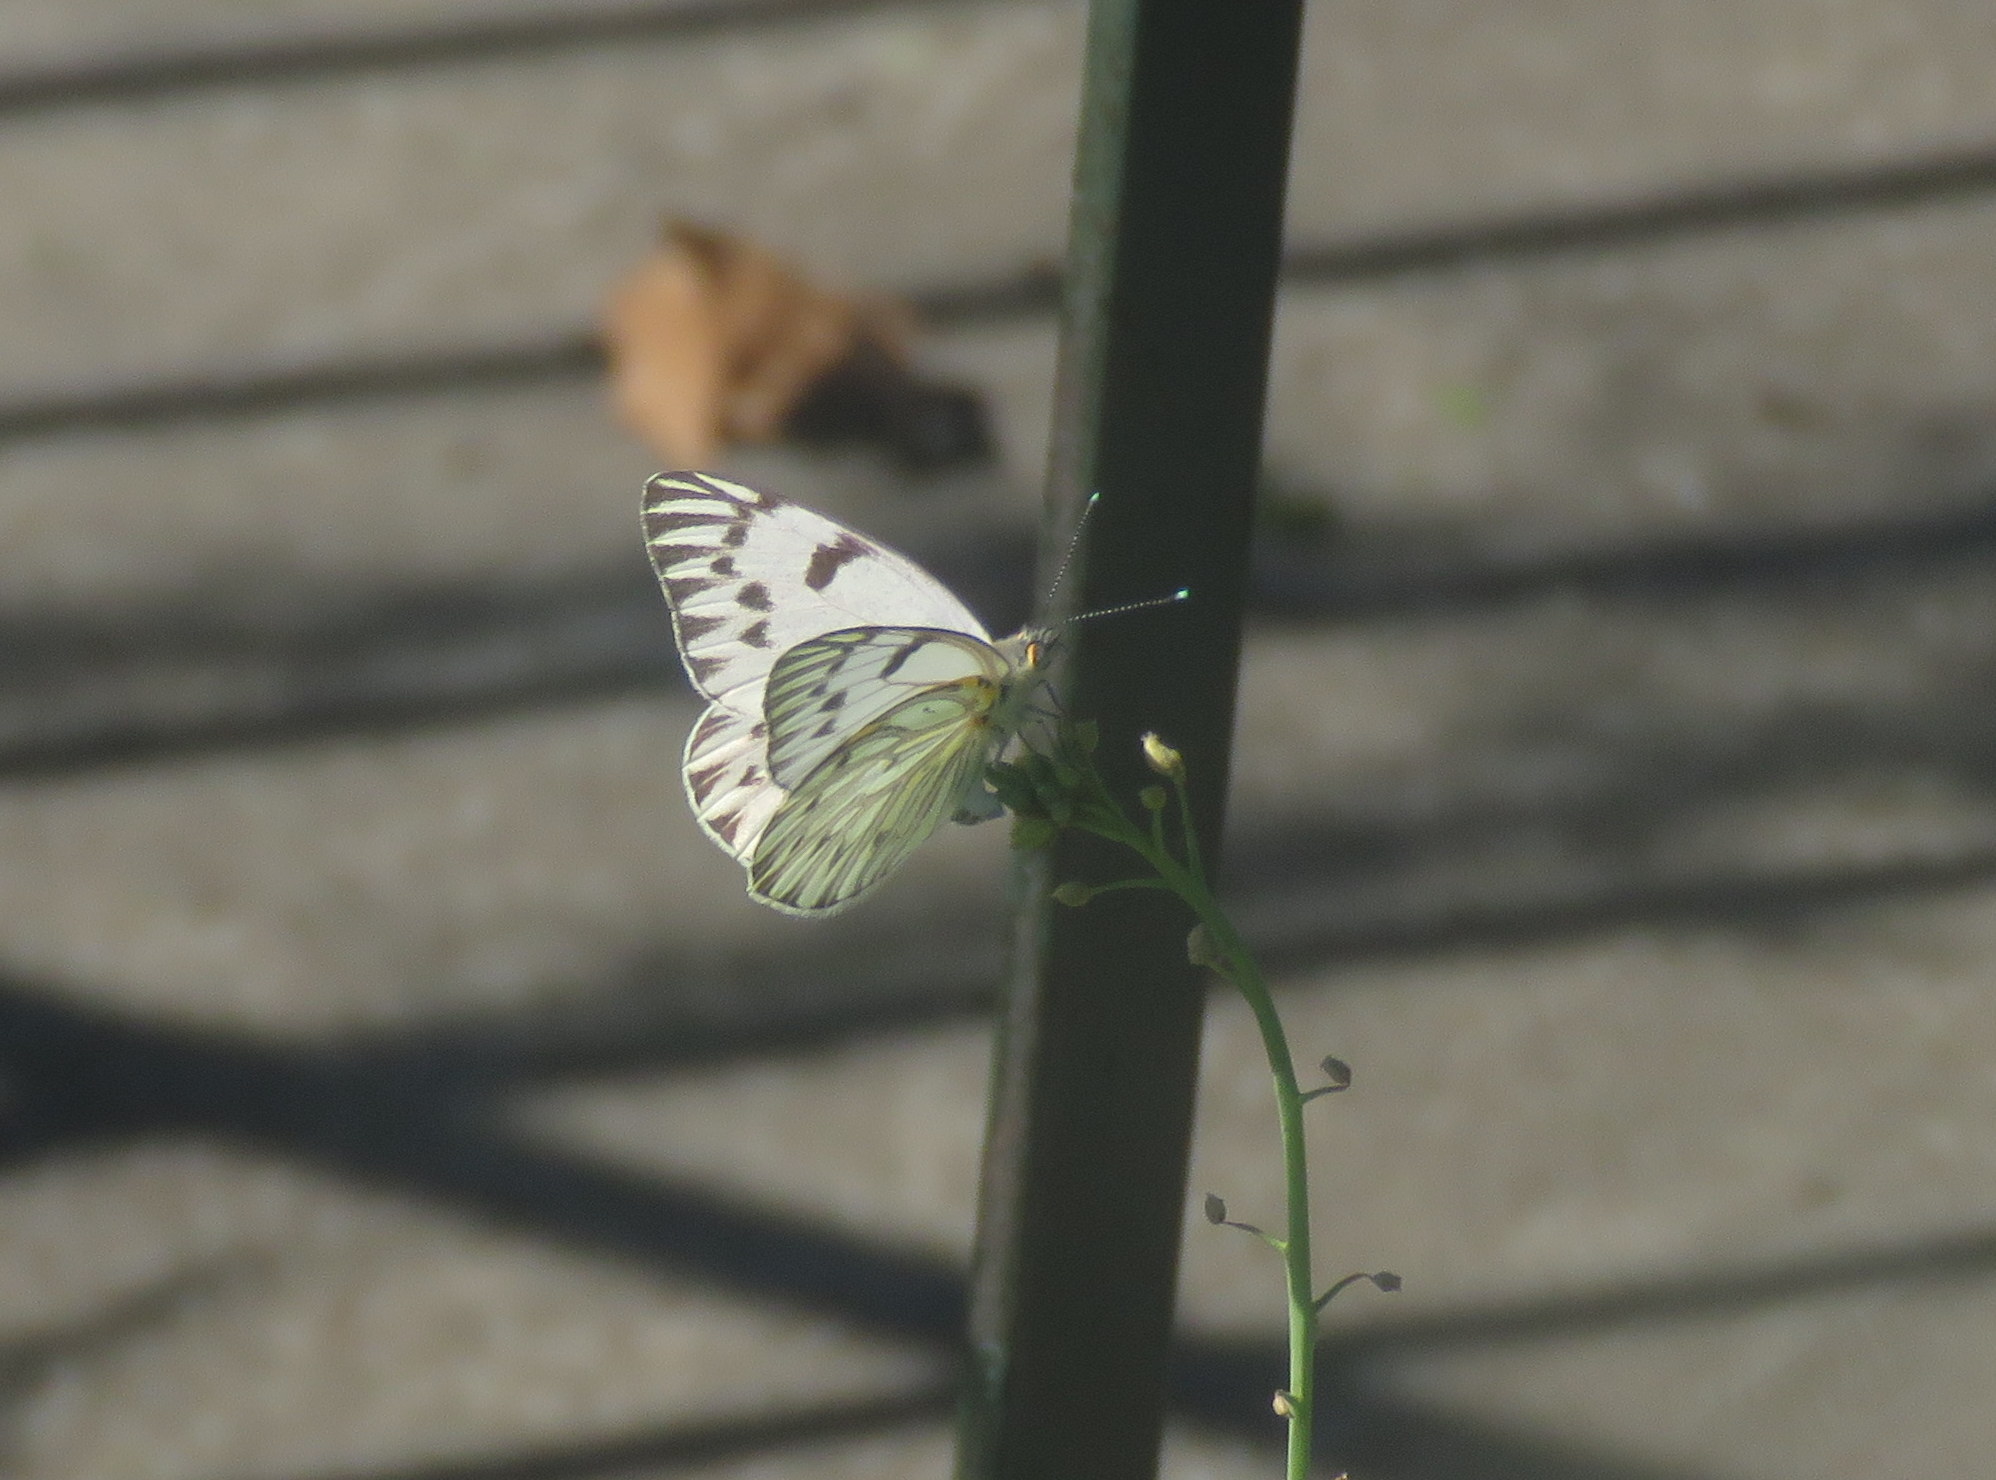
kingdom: Animalia
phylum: Arthropoda
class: Insecta
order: Lepidoptera
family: Pieridae
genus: Tatochila
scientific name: Tatochila autodice
